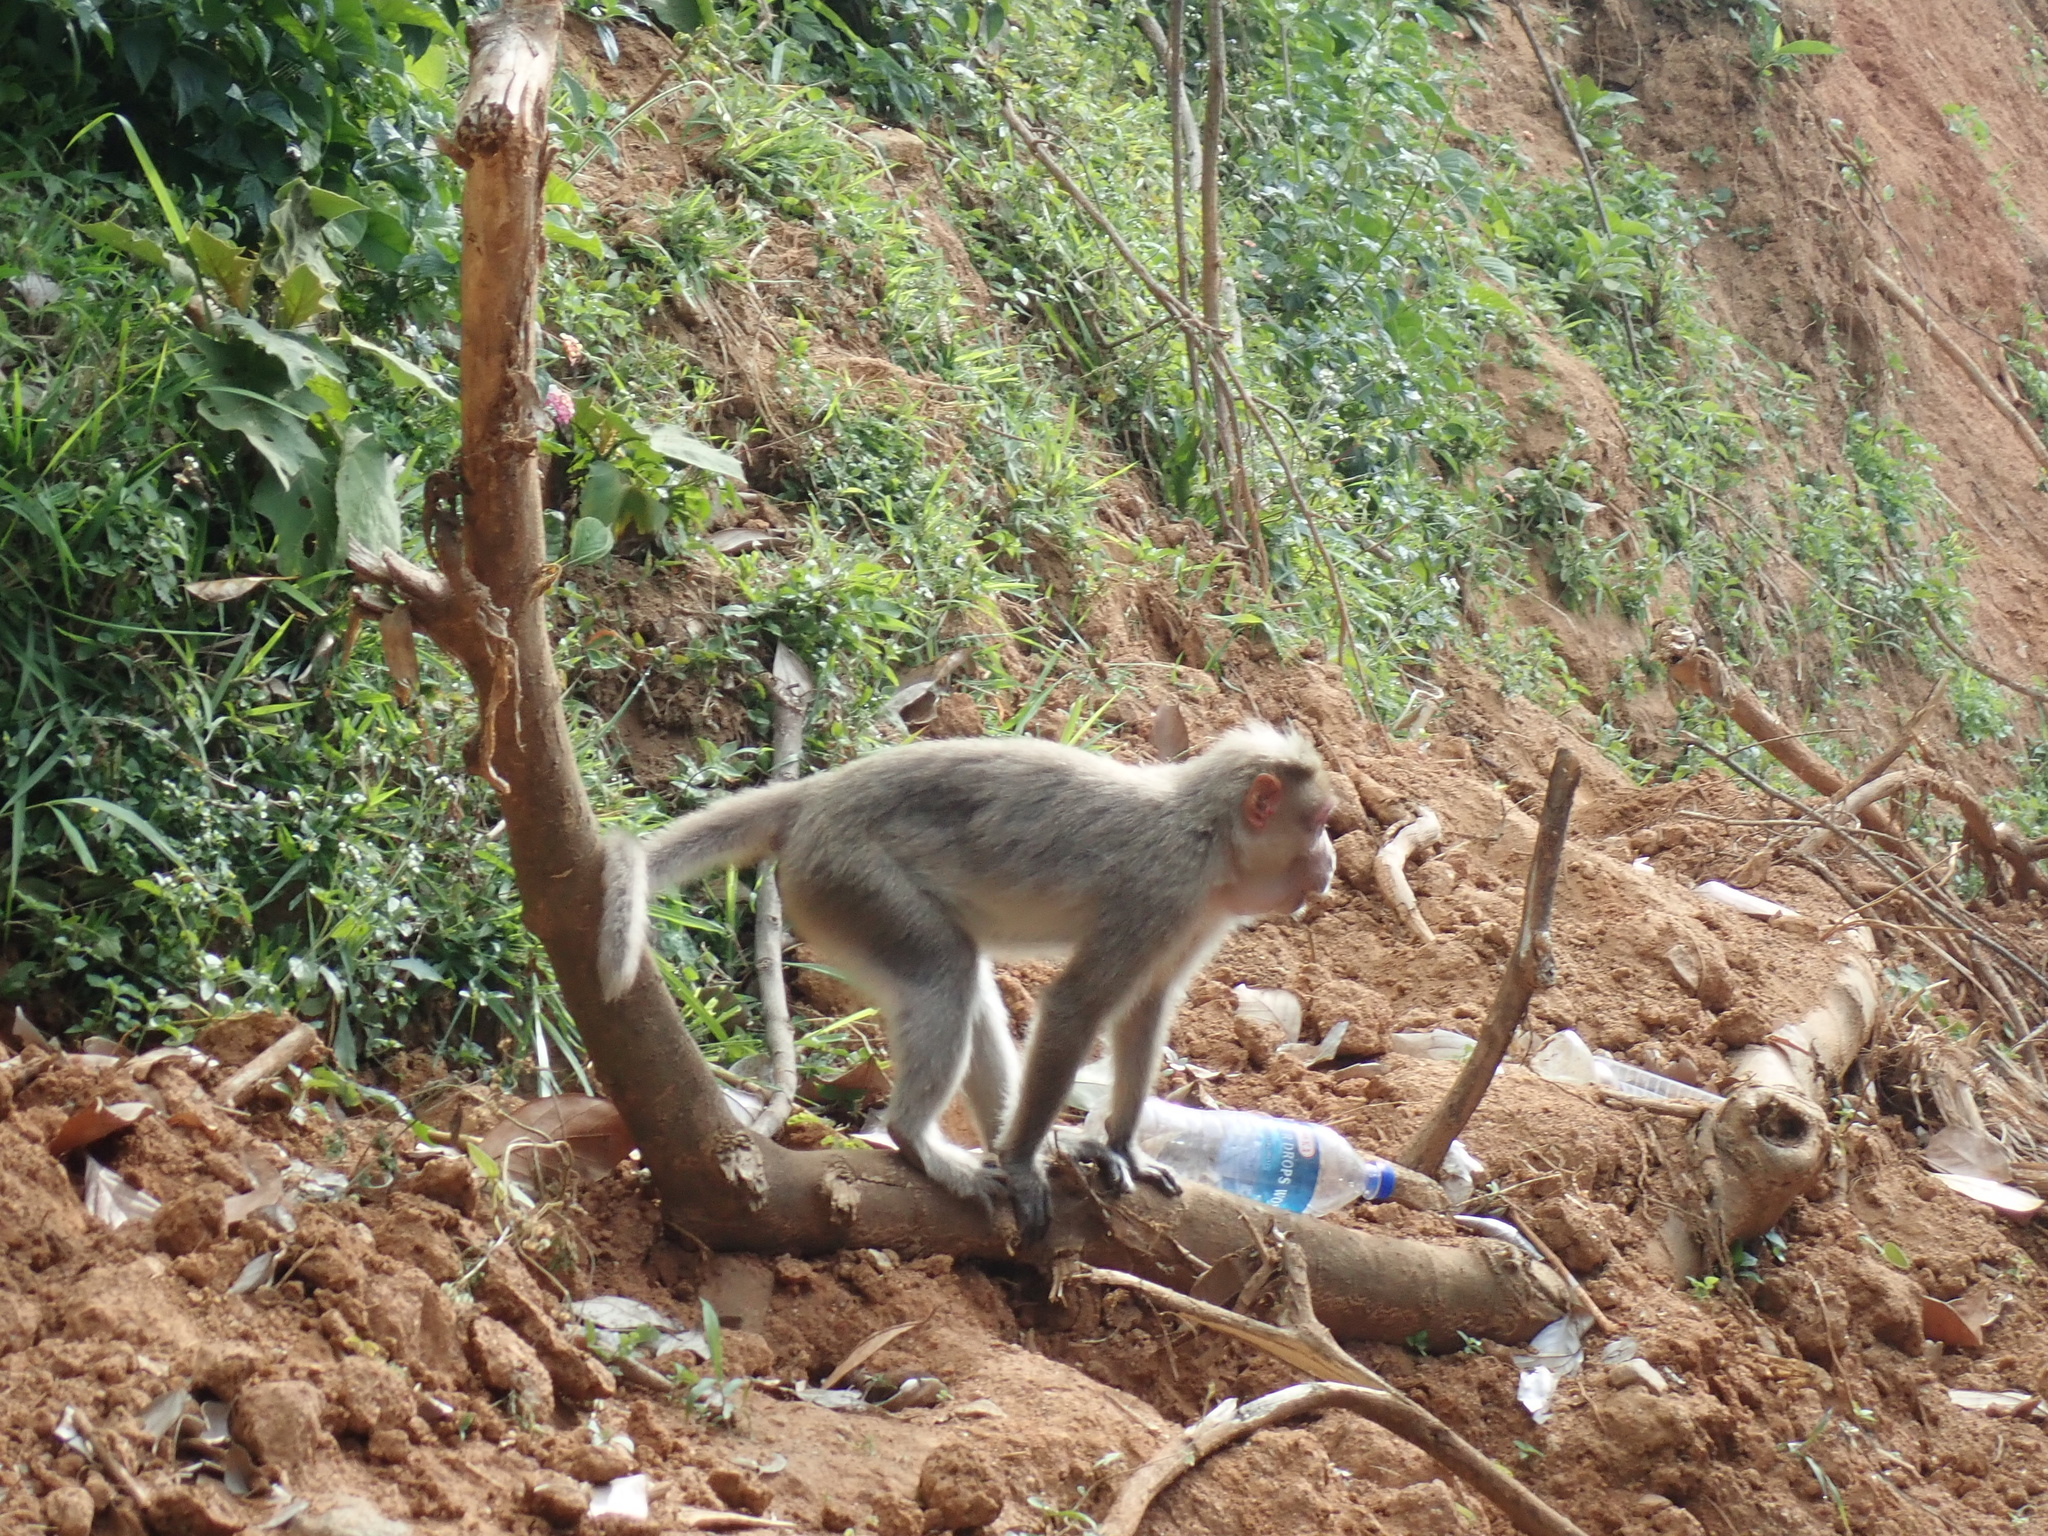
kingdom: Animalia
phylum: Chordata
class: Mammalia
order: Primates
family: Cercopithecidae
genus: Macaca
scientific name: Macaca radiata
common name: Bonnet macaque
